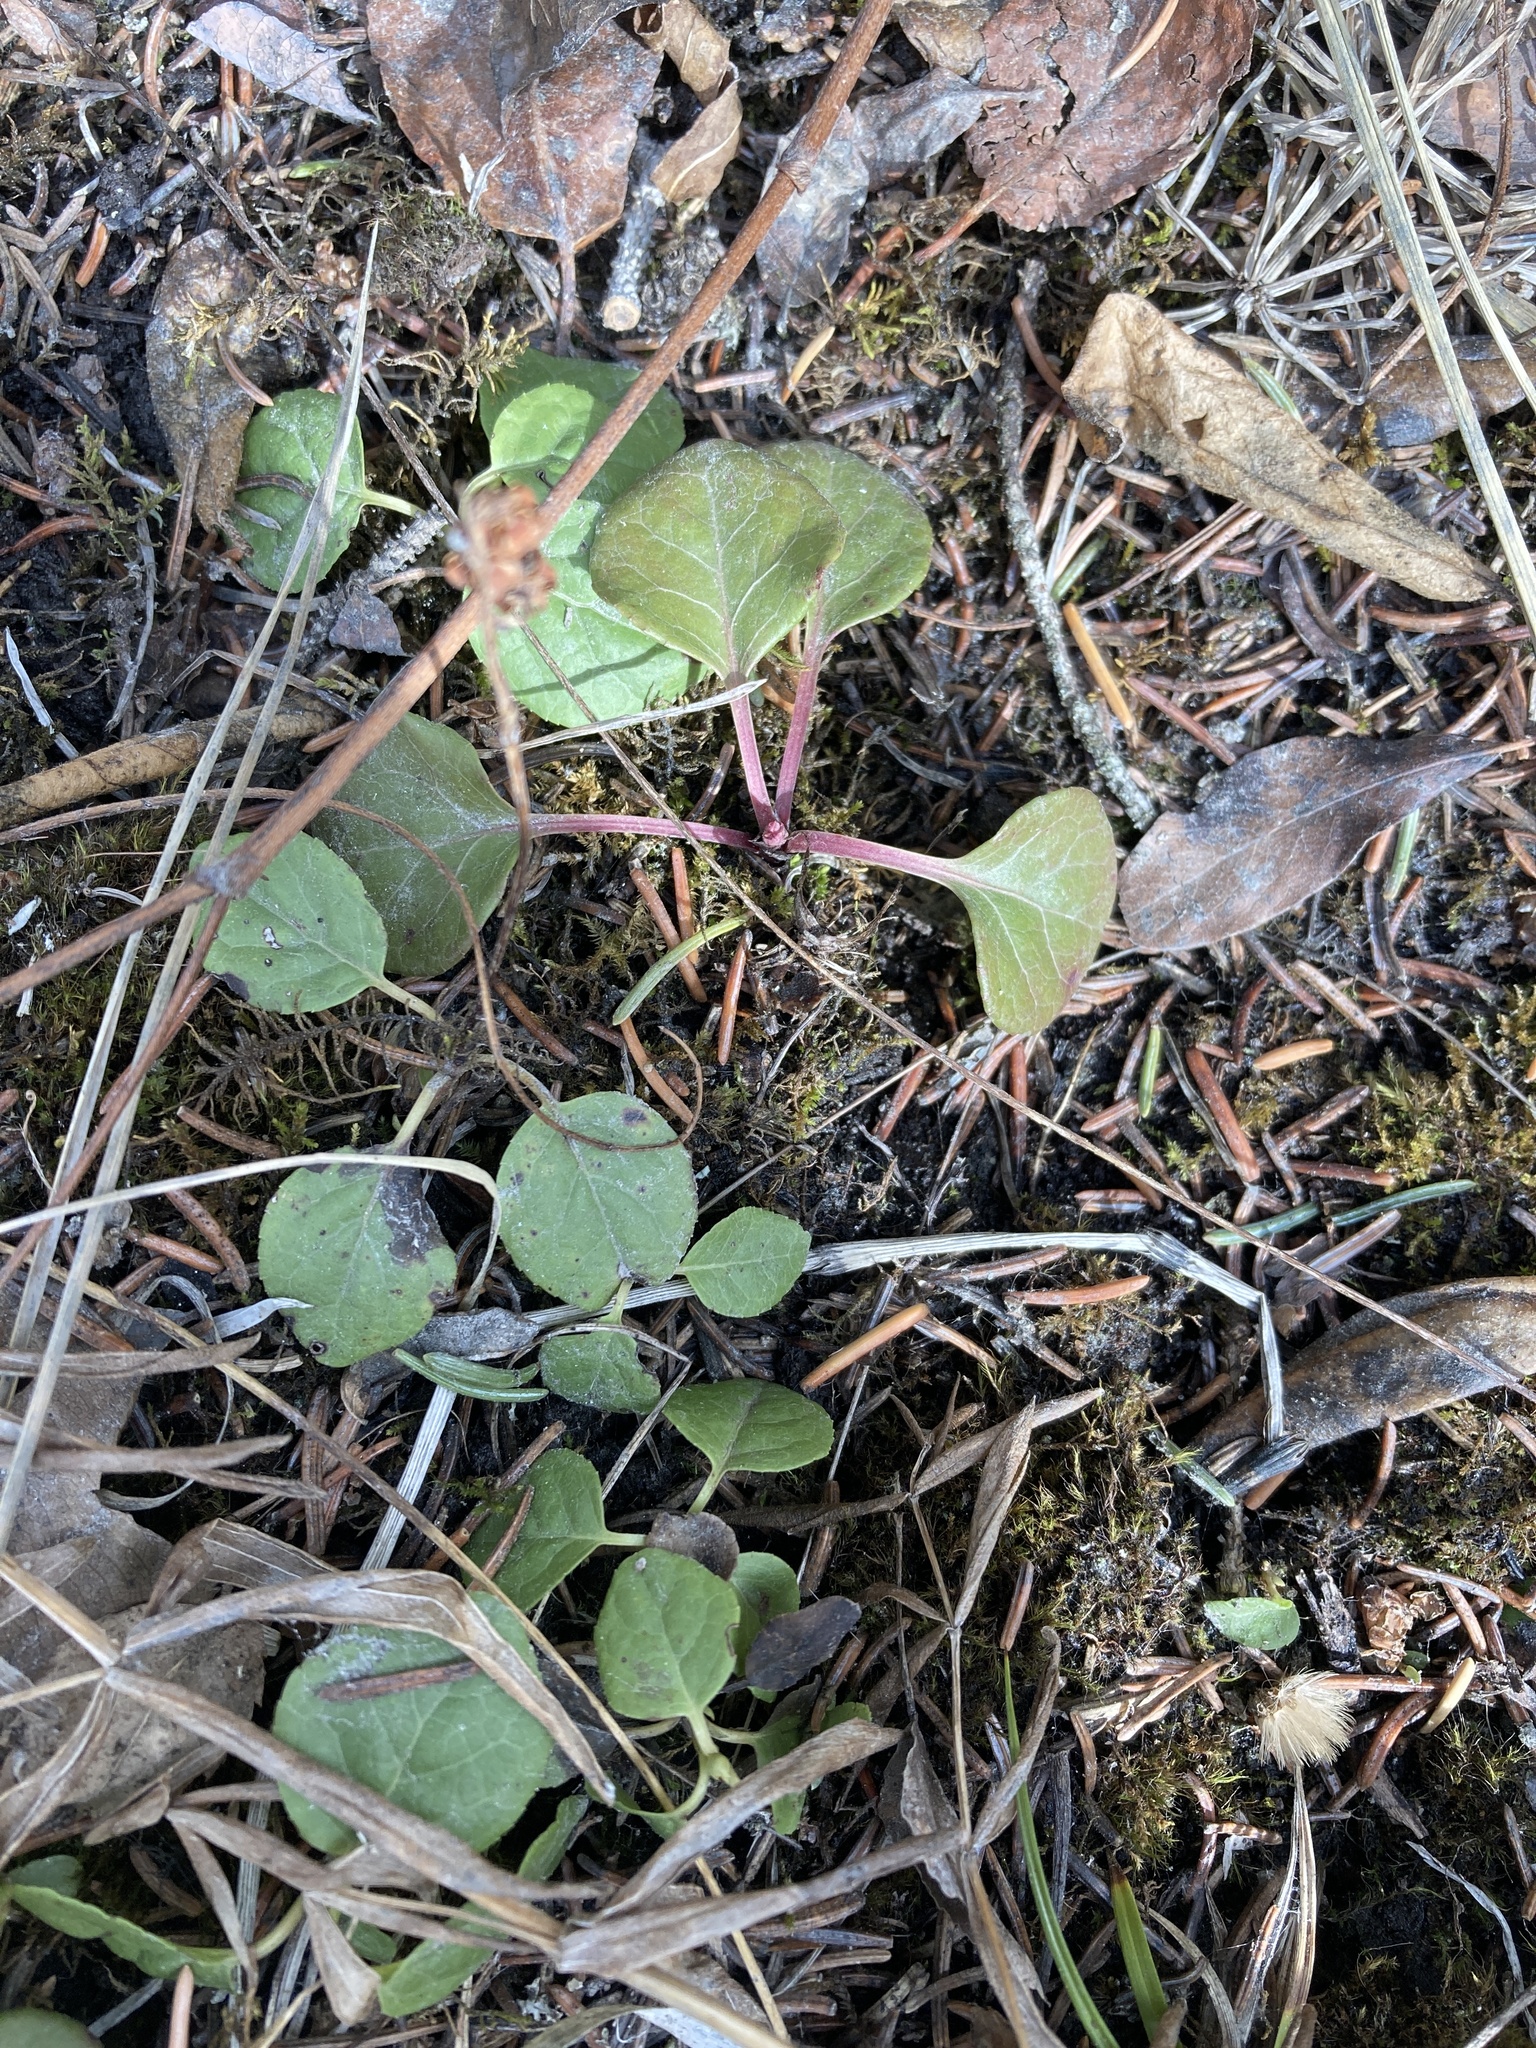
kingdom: Plantae
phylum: Tracheophyta
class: Magnoliopsida
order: Ericales
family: Ericaceae
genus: Pyrola
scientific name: Pyrola asarifolia
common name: Bog wintergreen
